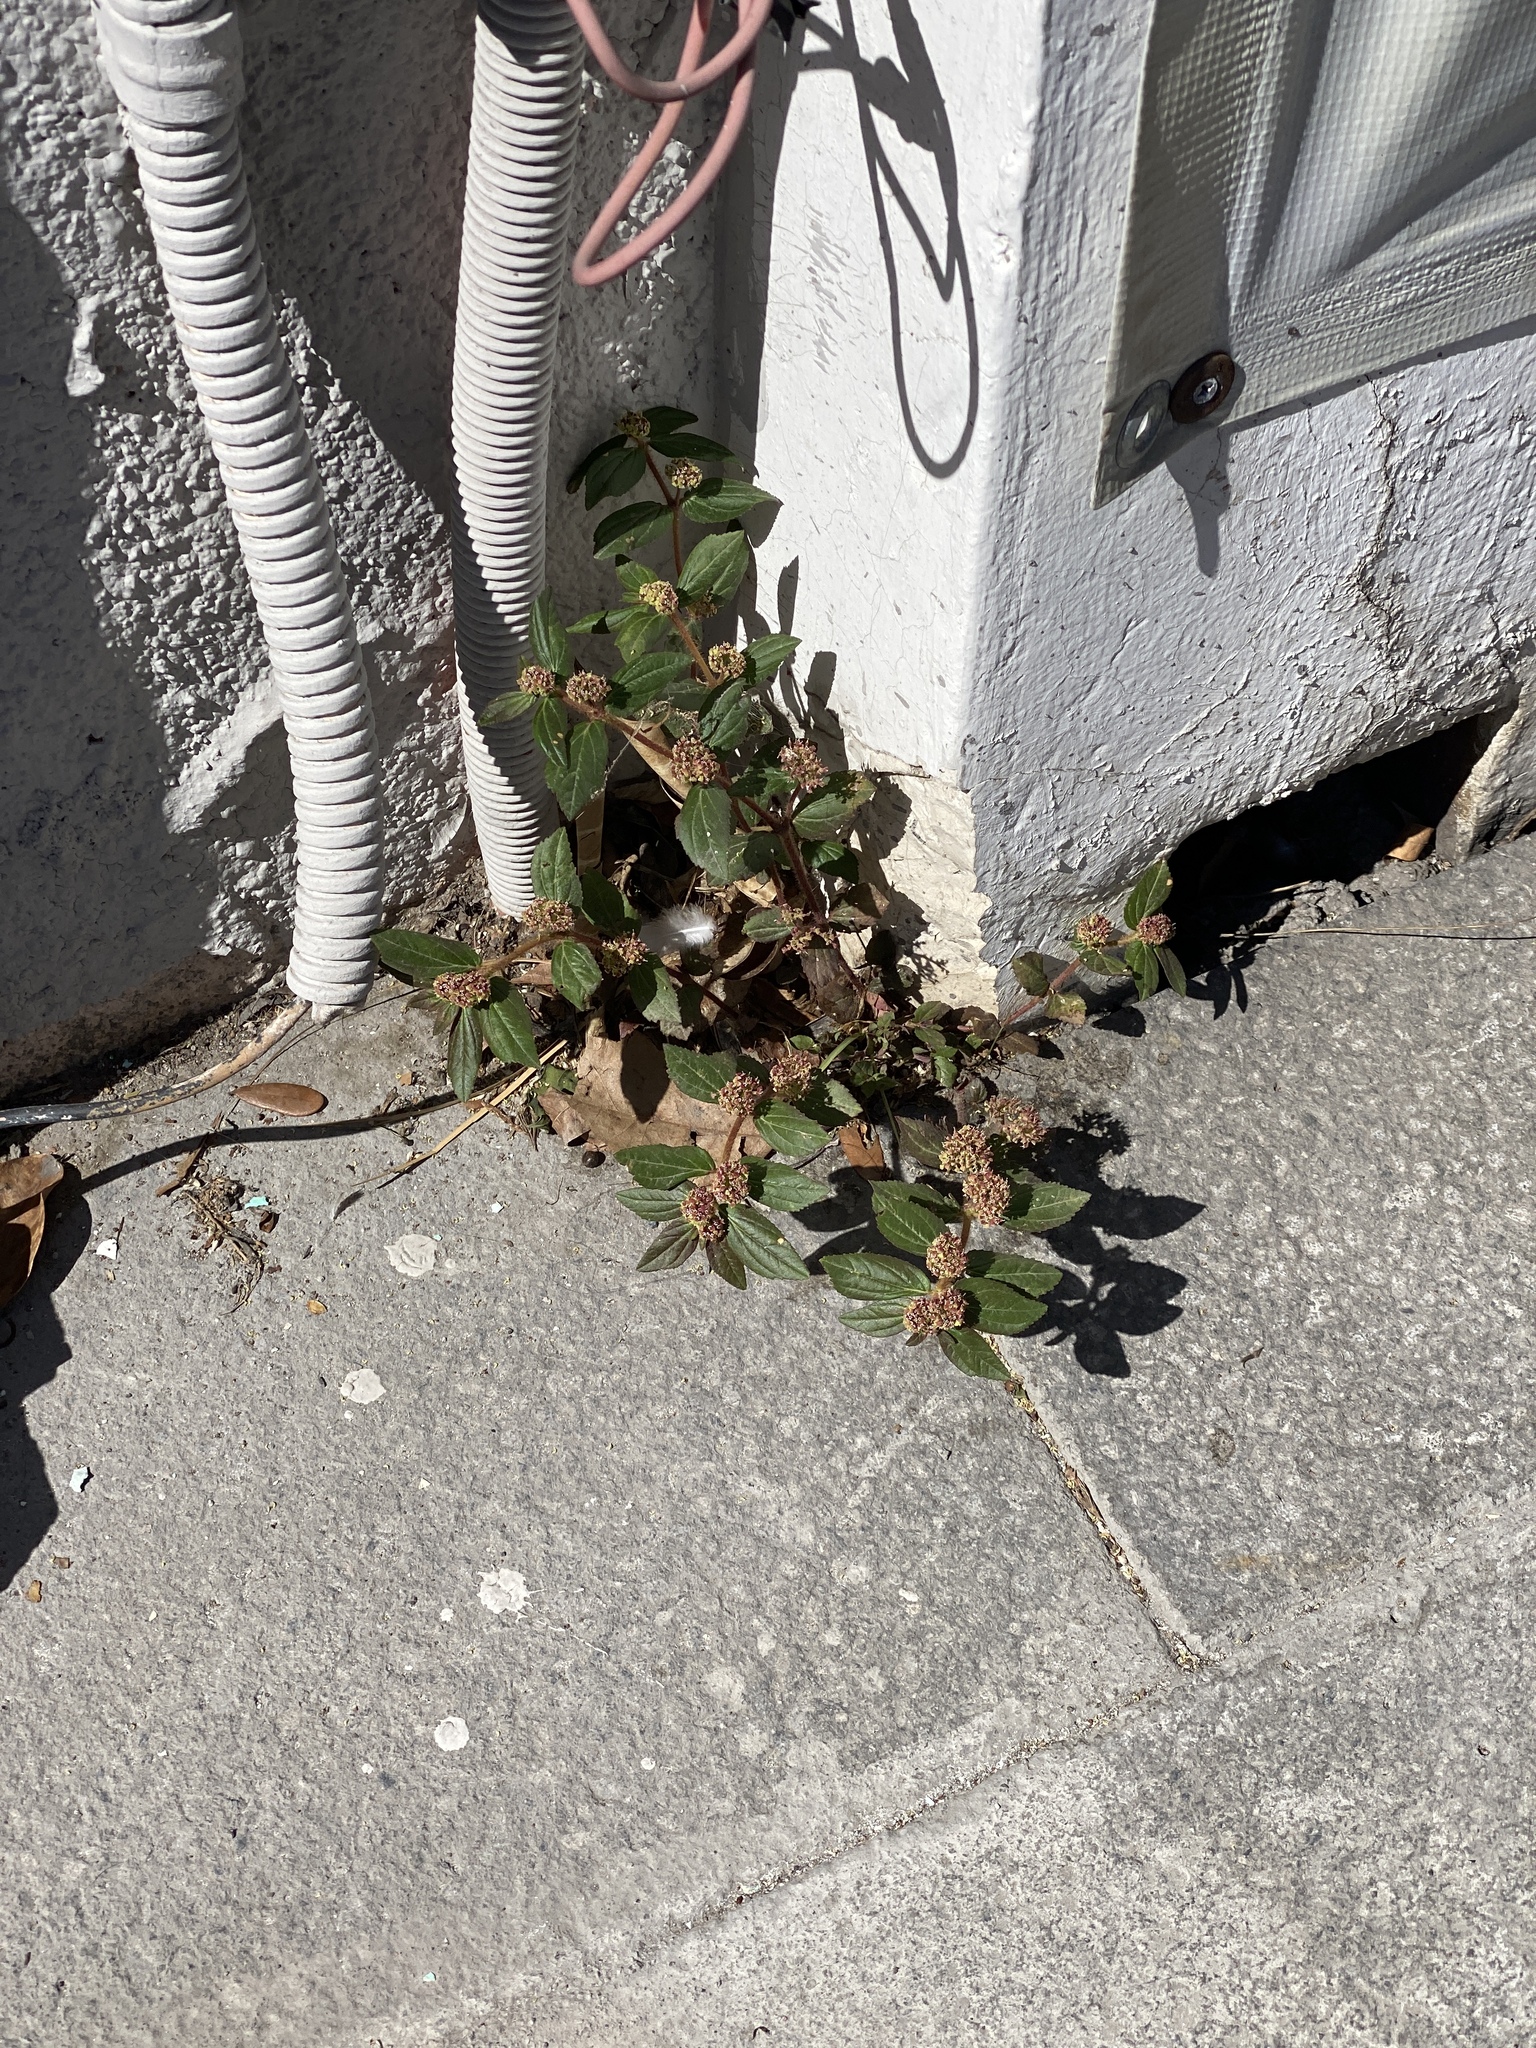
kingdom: Plantae
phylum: Tracheophyta
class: Magnoliopsida
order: Malpighiales
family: Euphorbiaceae
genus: Euphorbia
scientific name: Euphorbia hirta
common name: Pillpod sandmat
